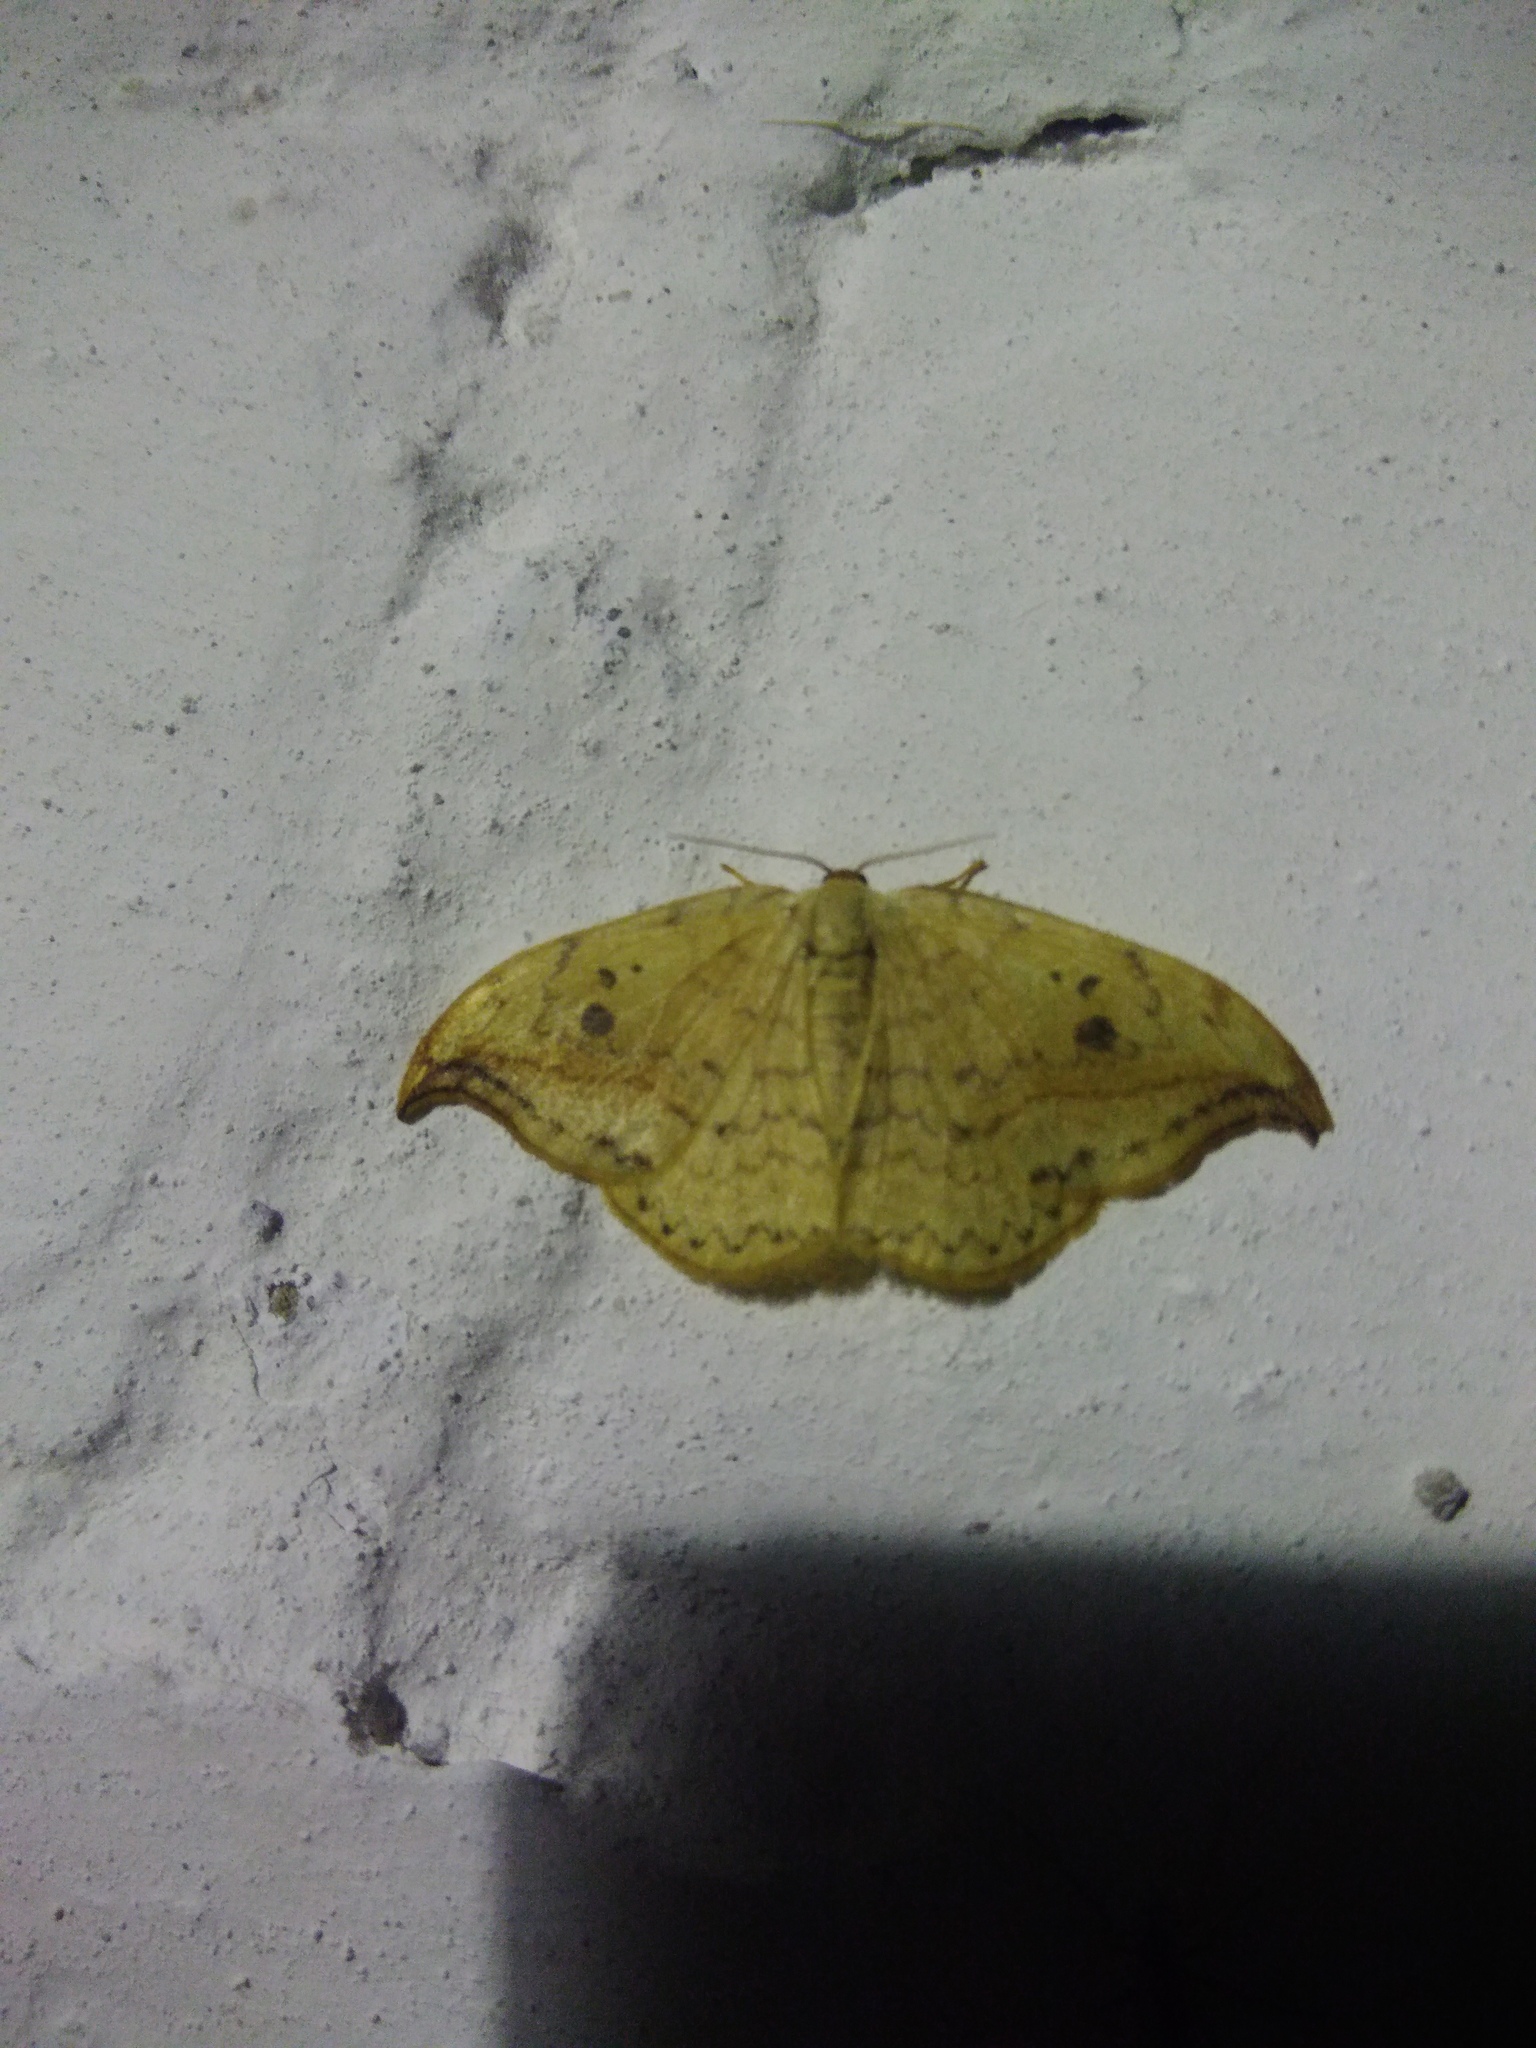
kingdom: Animalia
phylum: Arthropoda
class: Insecta
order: Lepidoptera
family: Drepanidae
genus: Drepana
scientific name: Drepana falcataria
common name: Pebble hook-tip
